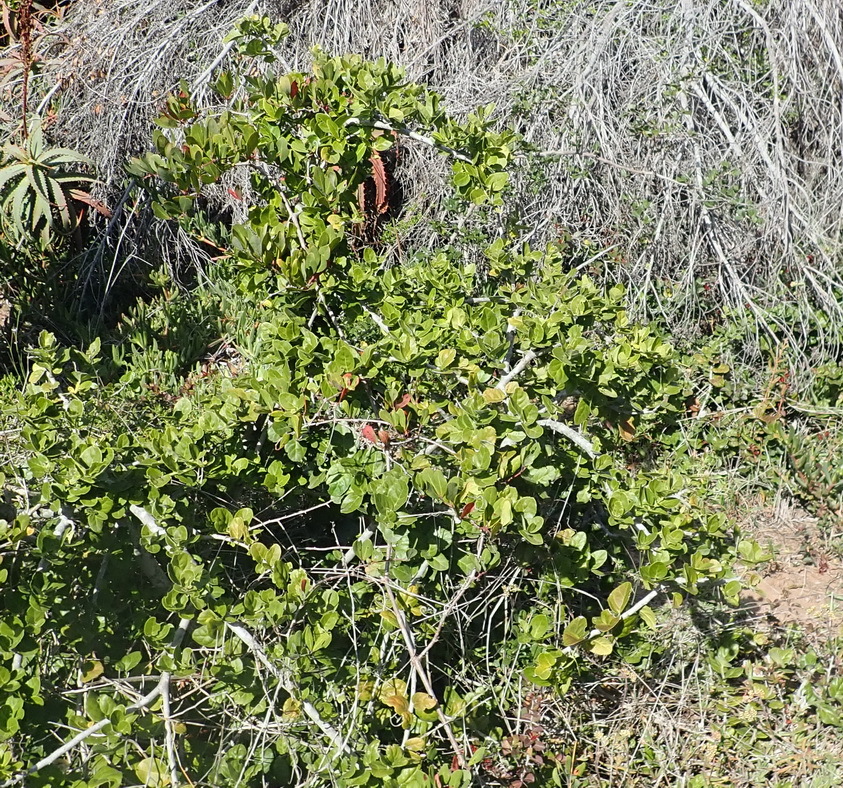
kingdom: Plantae
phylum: Tracheophyta
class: Magnoliopsida
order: Celastrales
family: Celastraceae
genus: Mystroxylon
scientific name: Mystroxylon aethiopicum
